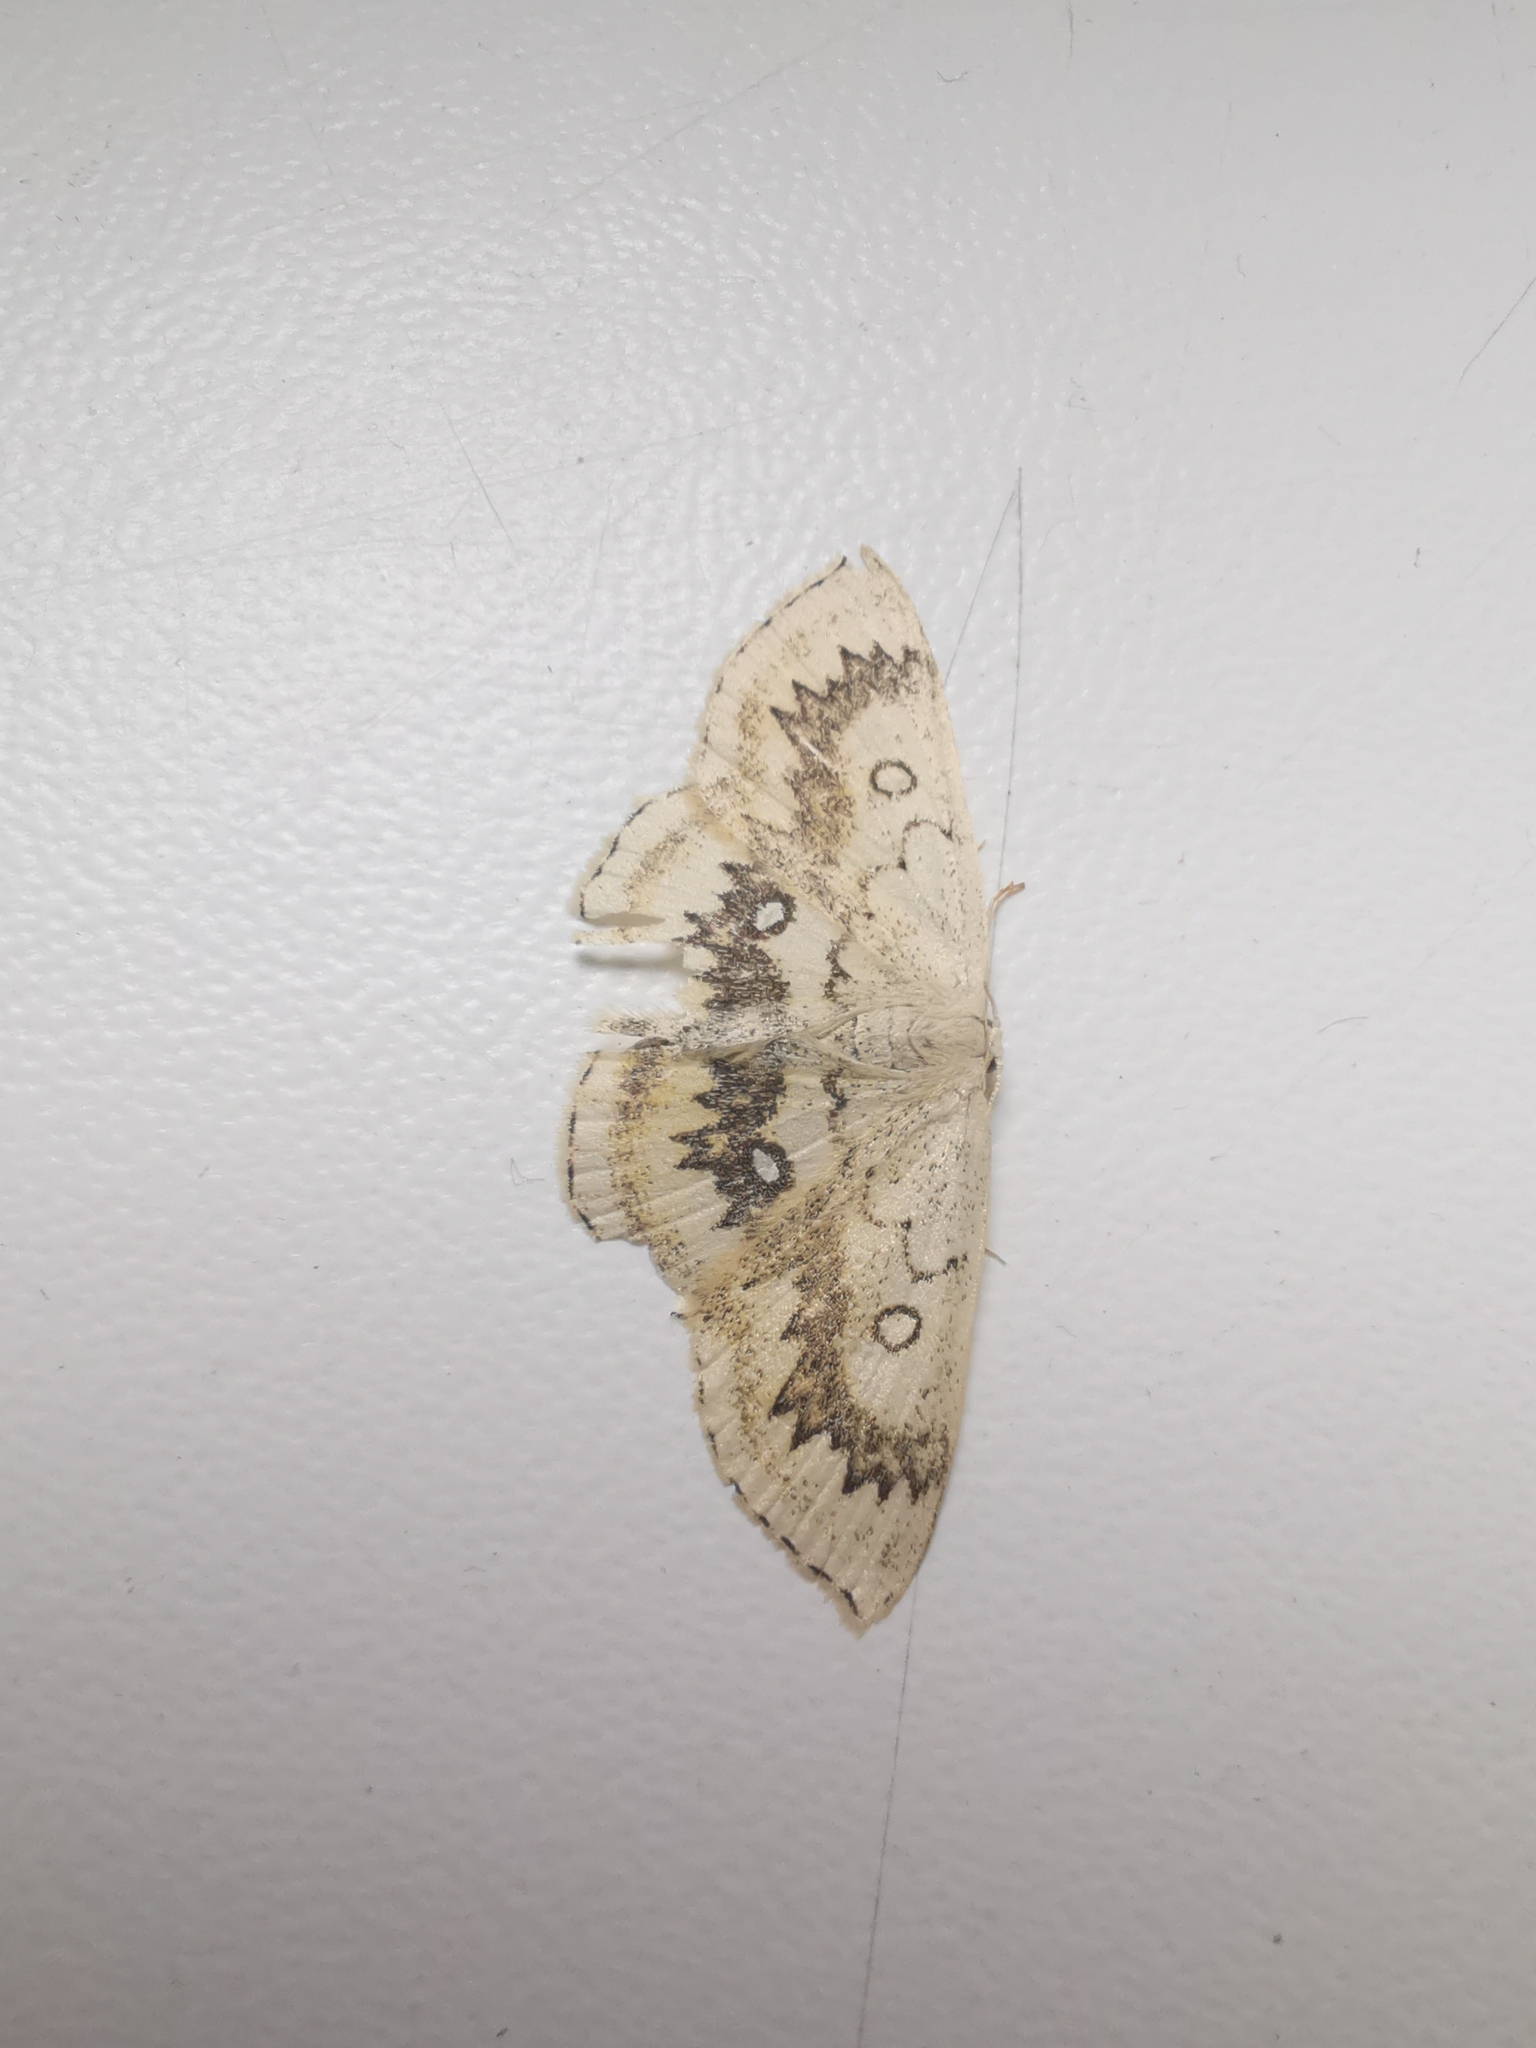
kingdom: Animalia
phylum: Arthropoda
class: Insecta
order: Lepidoptera
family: Geometridae
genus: Cyclophora
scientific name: Cyclophora annularia
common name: Mocha
